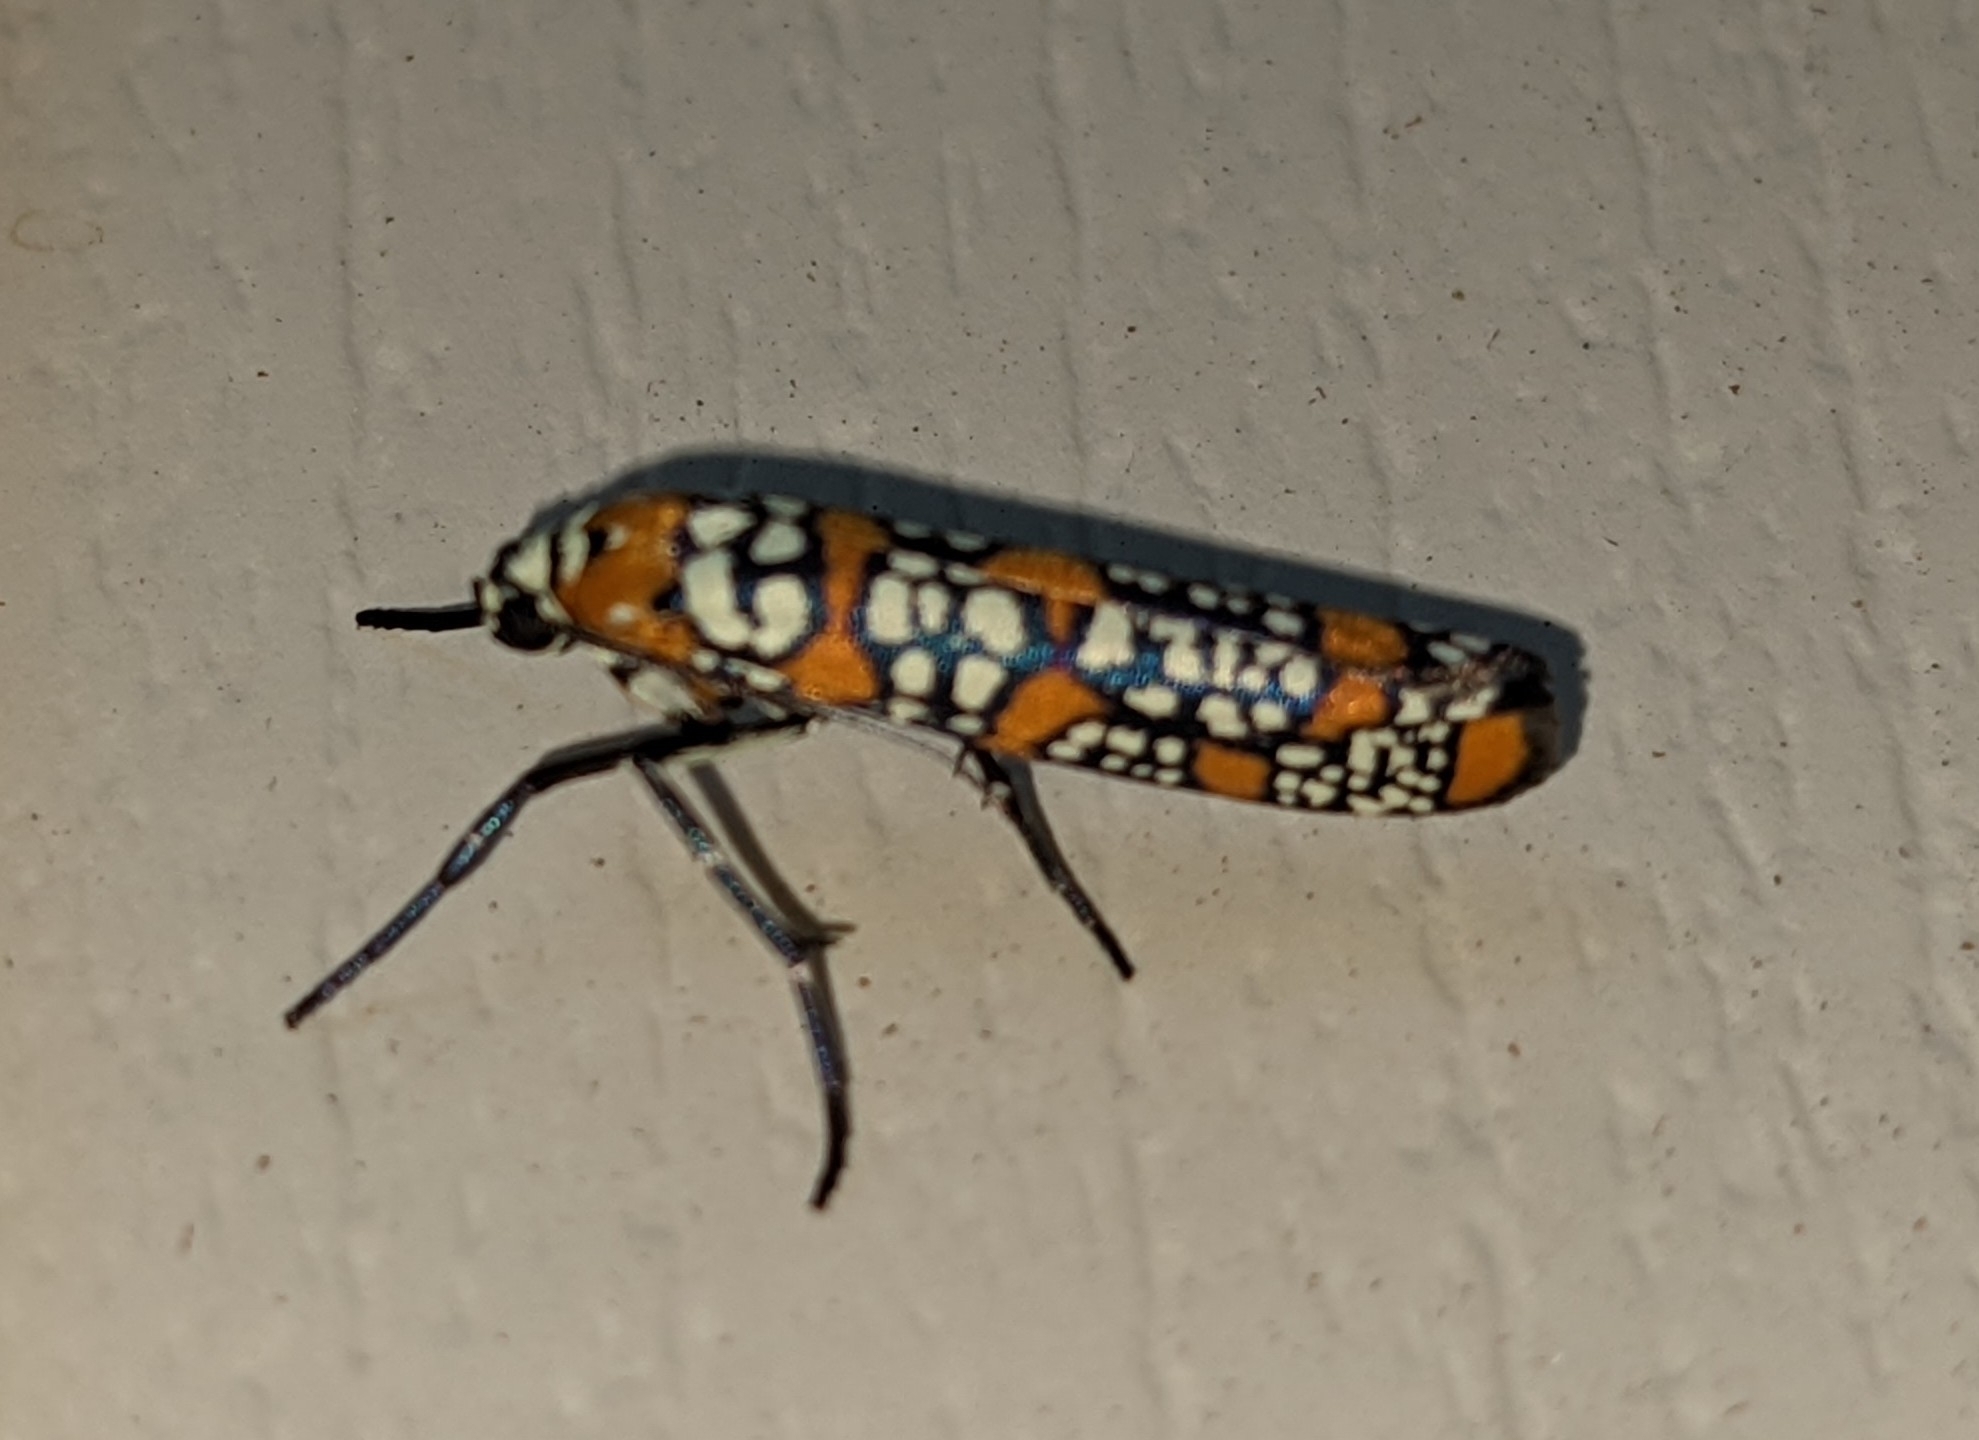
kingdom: Animalia
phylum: Arthropoda
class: Insecta
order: Lepidoptera
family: Attevidae
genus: Atteva
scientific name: Atteva punctella
